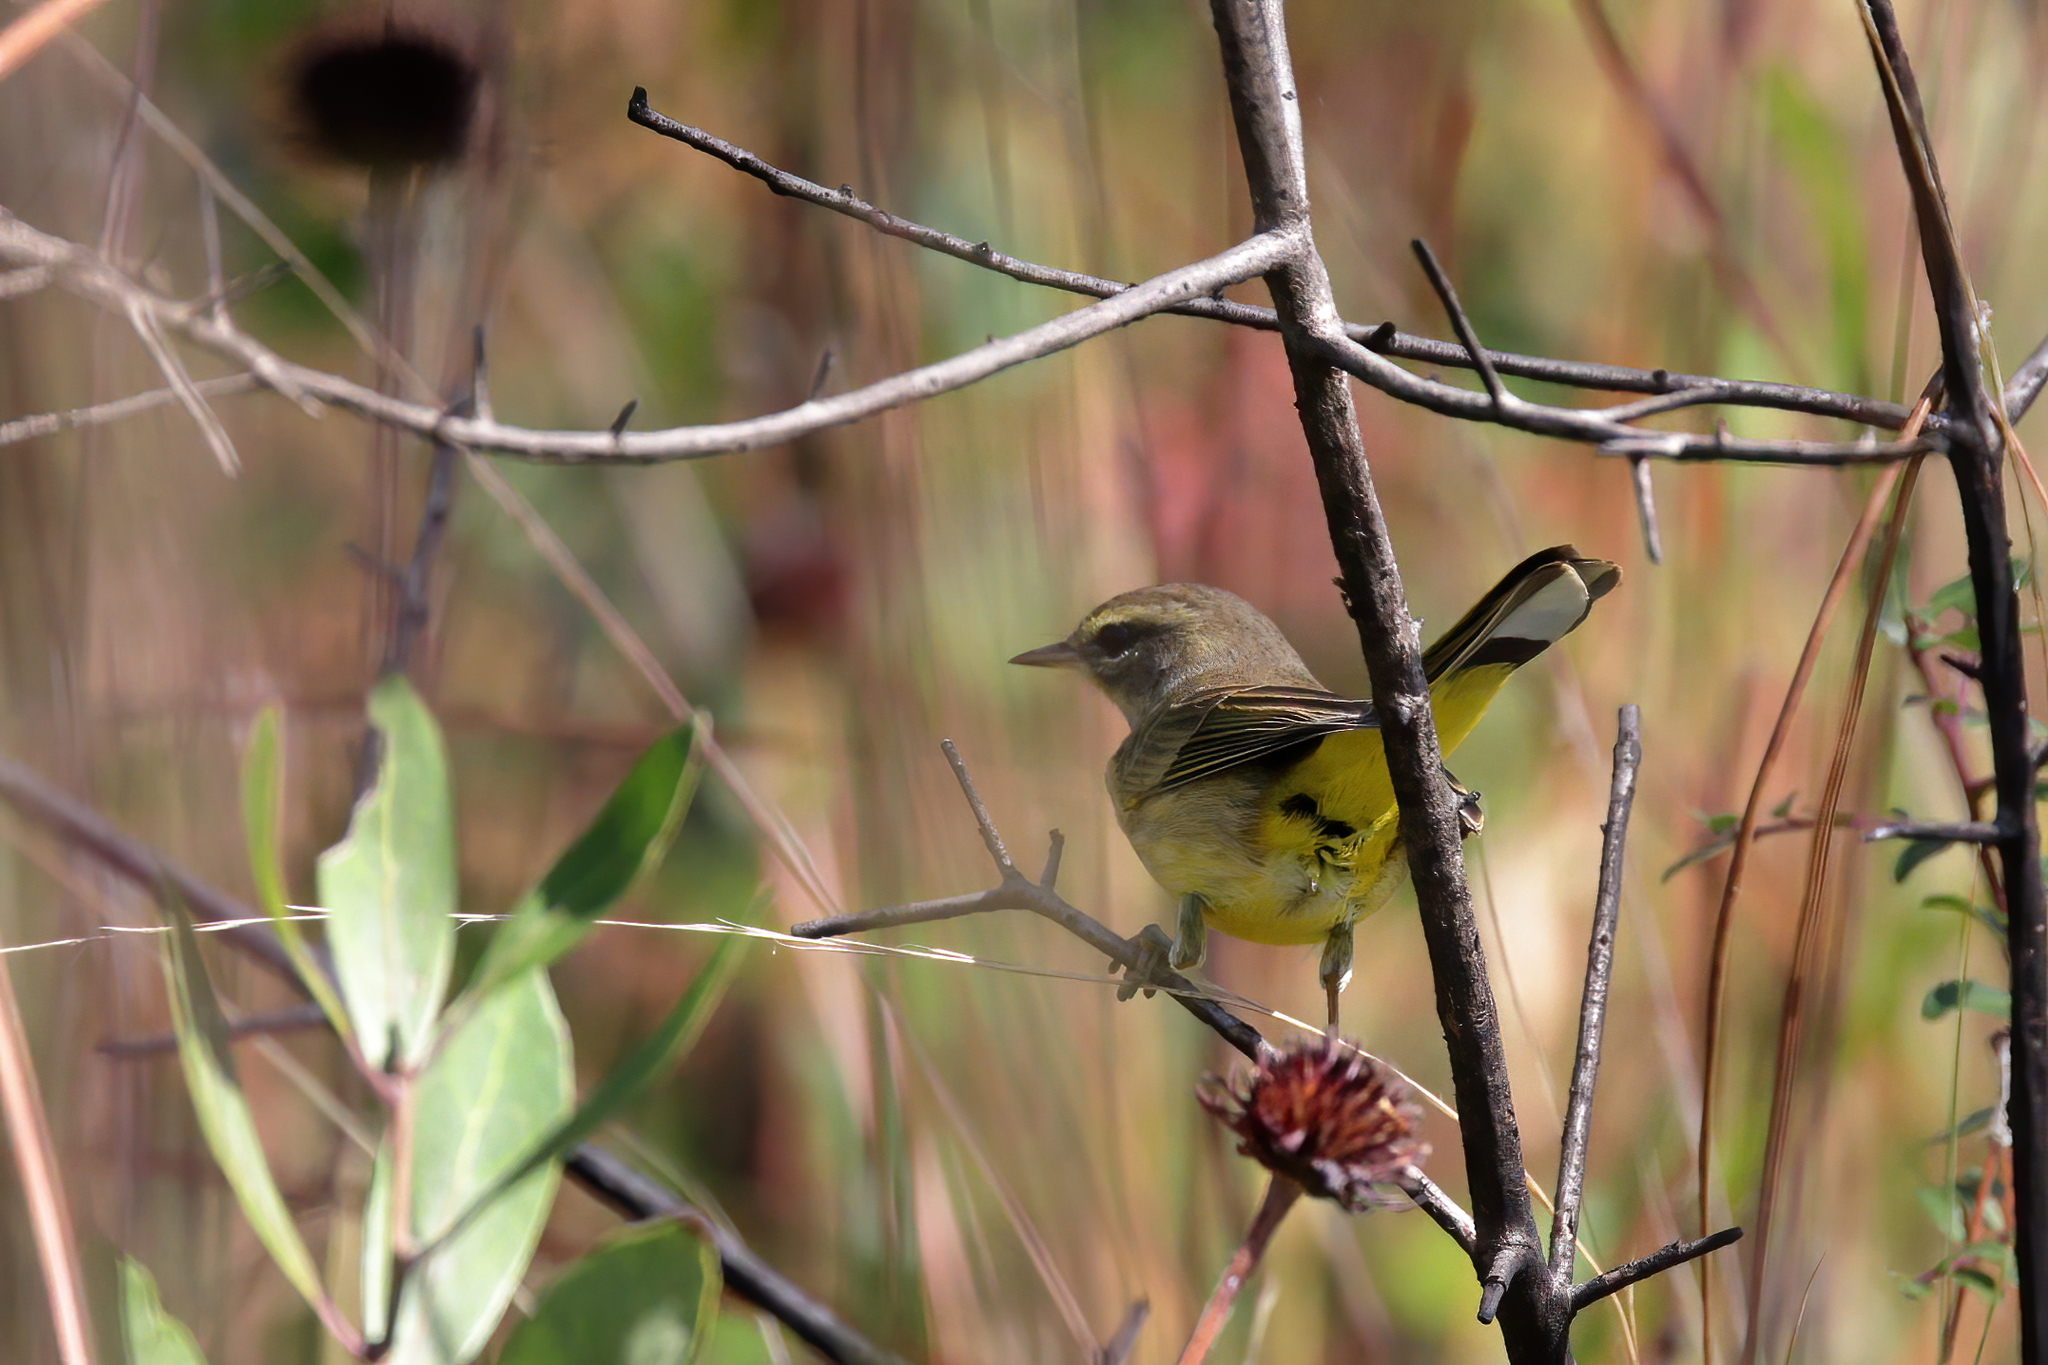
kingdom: Animalia
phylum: Chordata
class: Aves
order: Passeriformes
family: Parulidae
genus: Setophaga
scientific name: Setophaga palmarum
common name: Palm warbler
